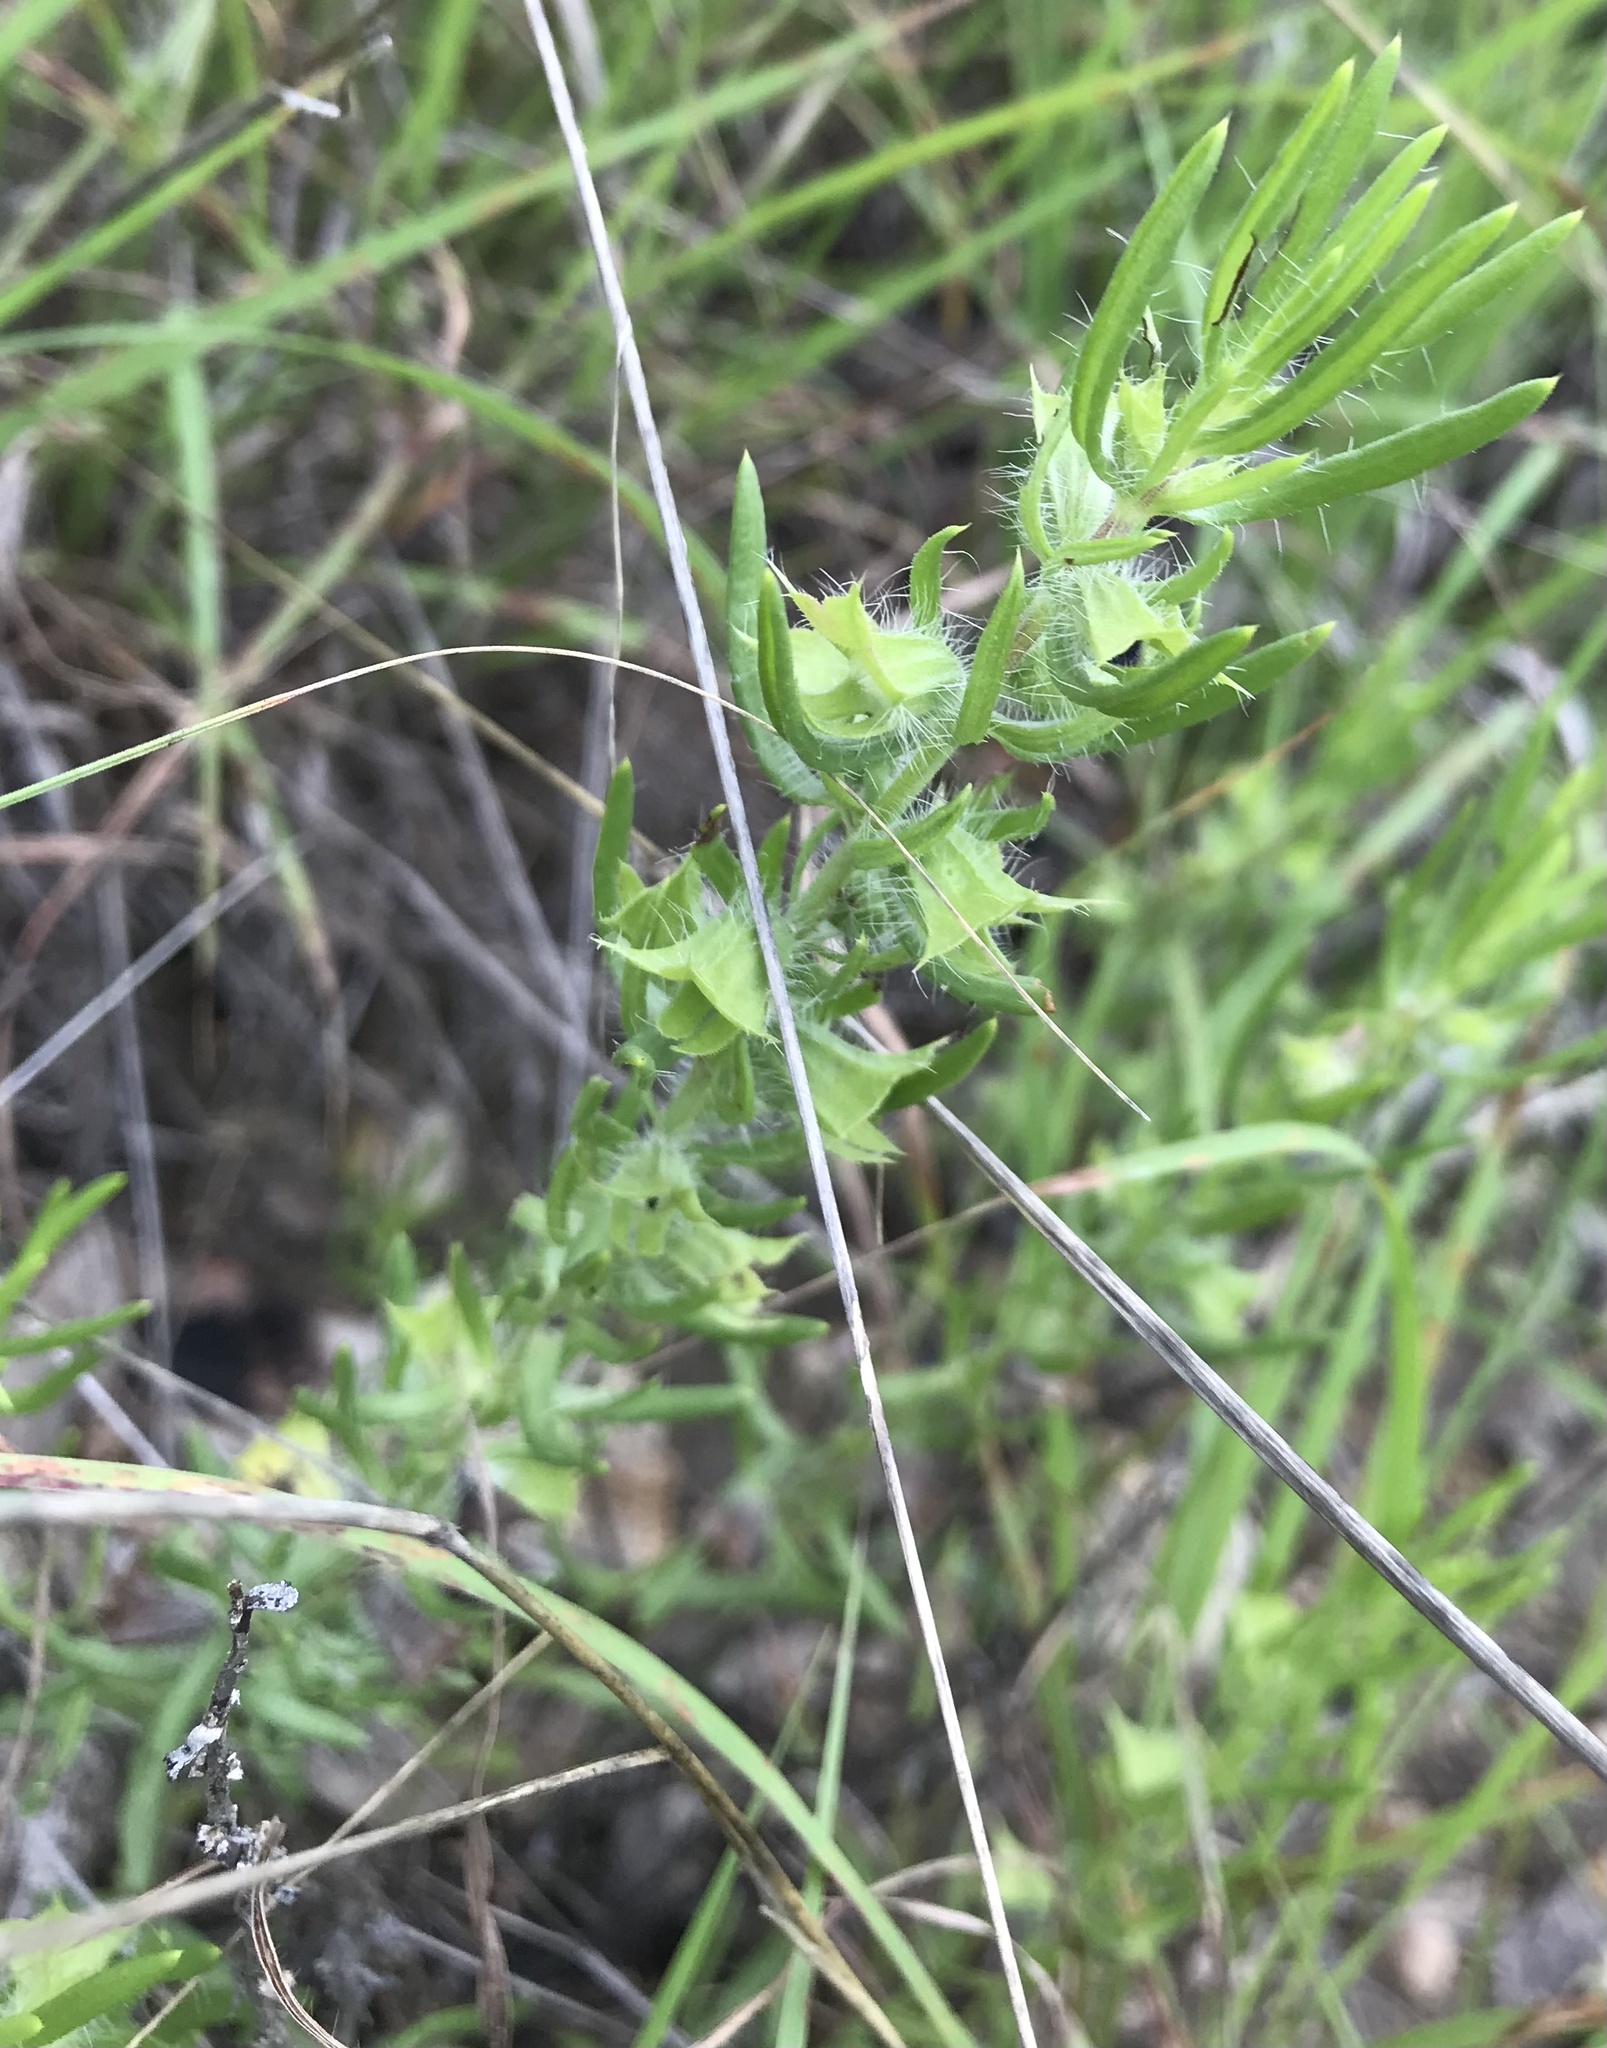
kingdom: Plantae
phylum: Tracheophyta
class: Magnoliopsida
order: Lamiales
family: Lamiaceae
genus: Salvia
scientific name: Salvia
